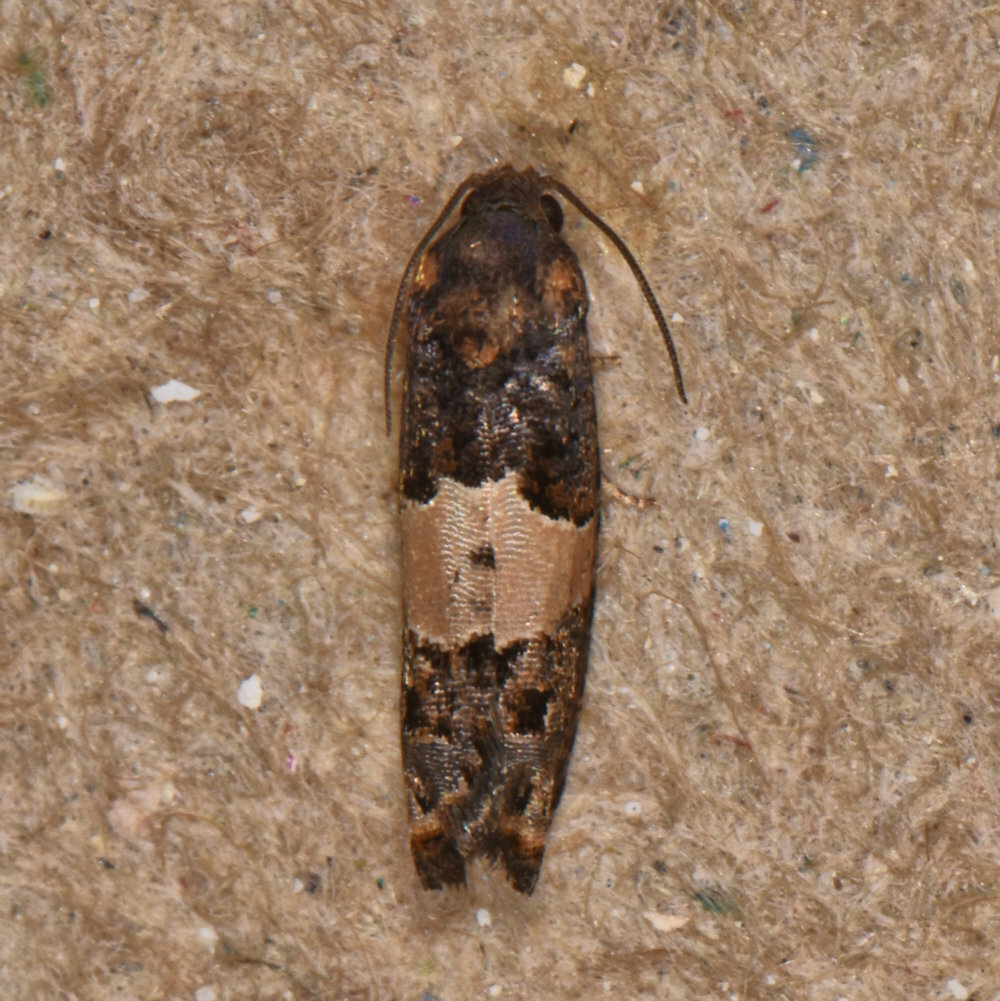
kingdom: Animalia
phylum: Arthropoda
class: Insecta
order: Lepidoptera
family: Tortricidae
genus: Epiblema
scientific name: Epiblema glenni
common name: Glenn's epiblema
